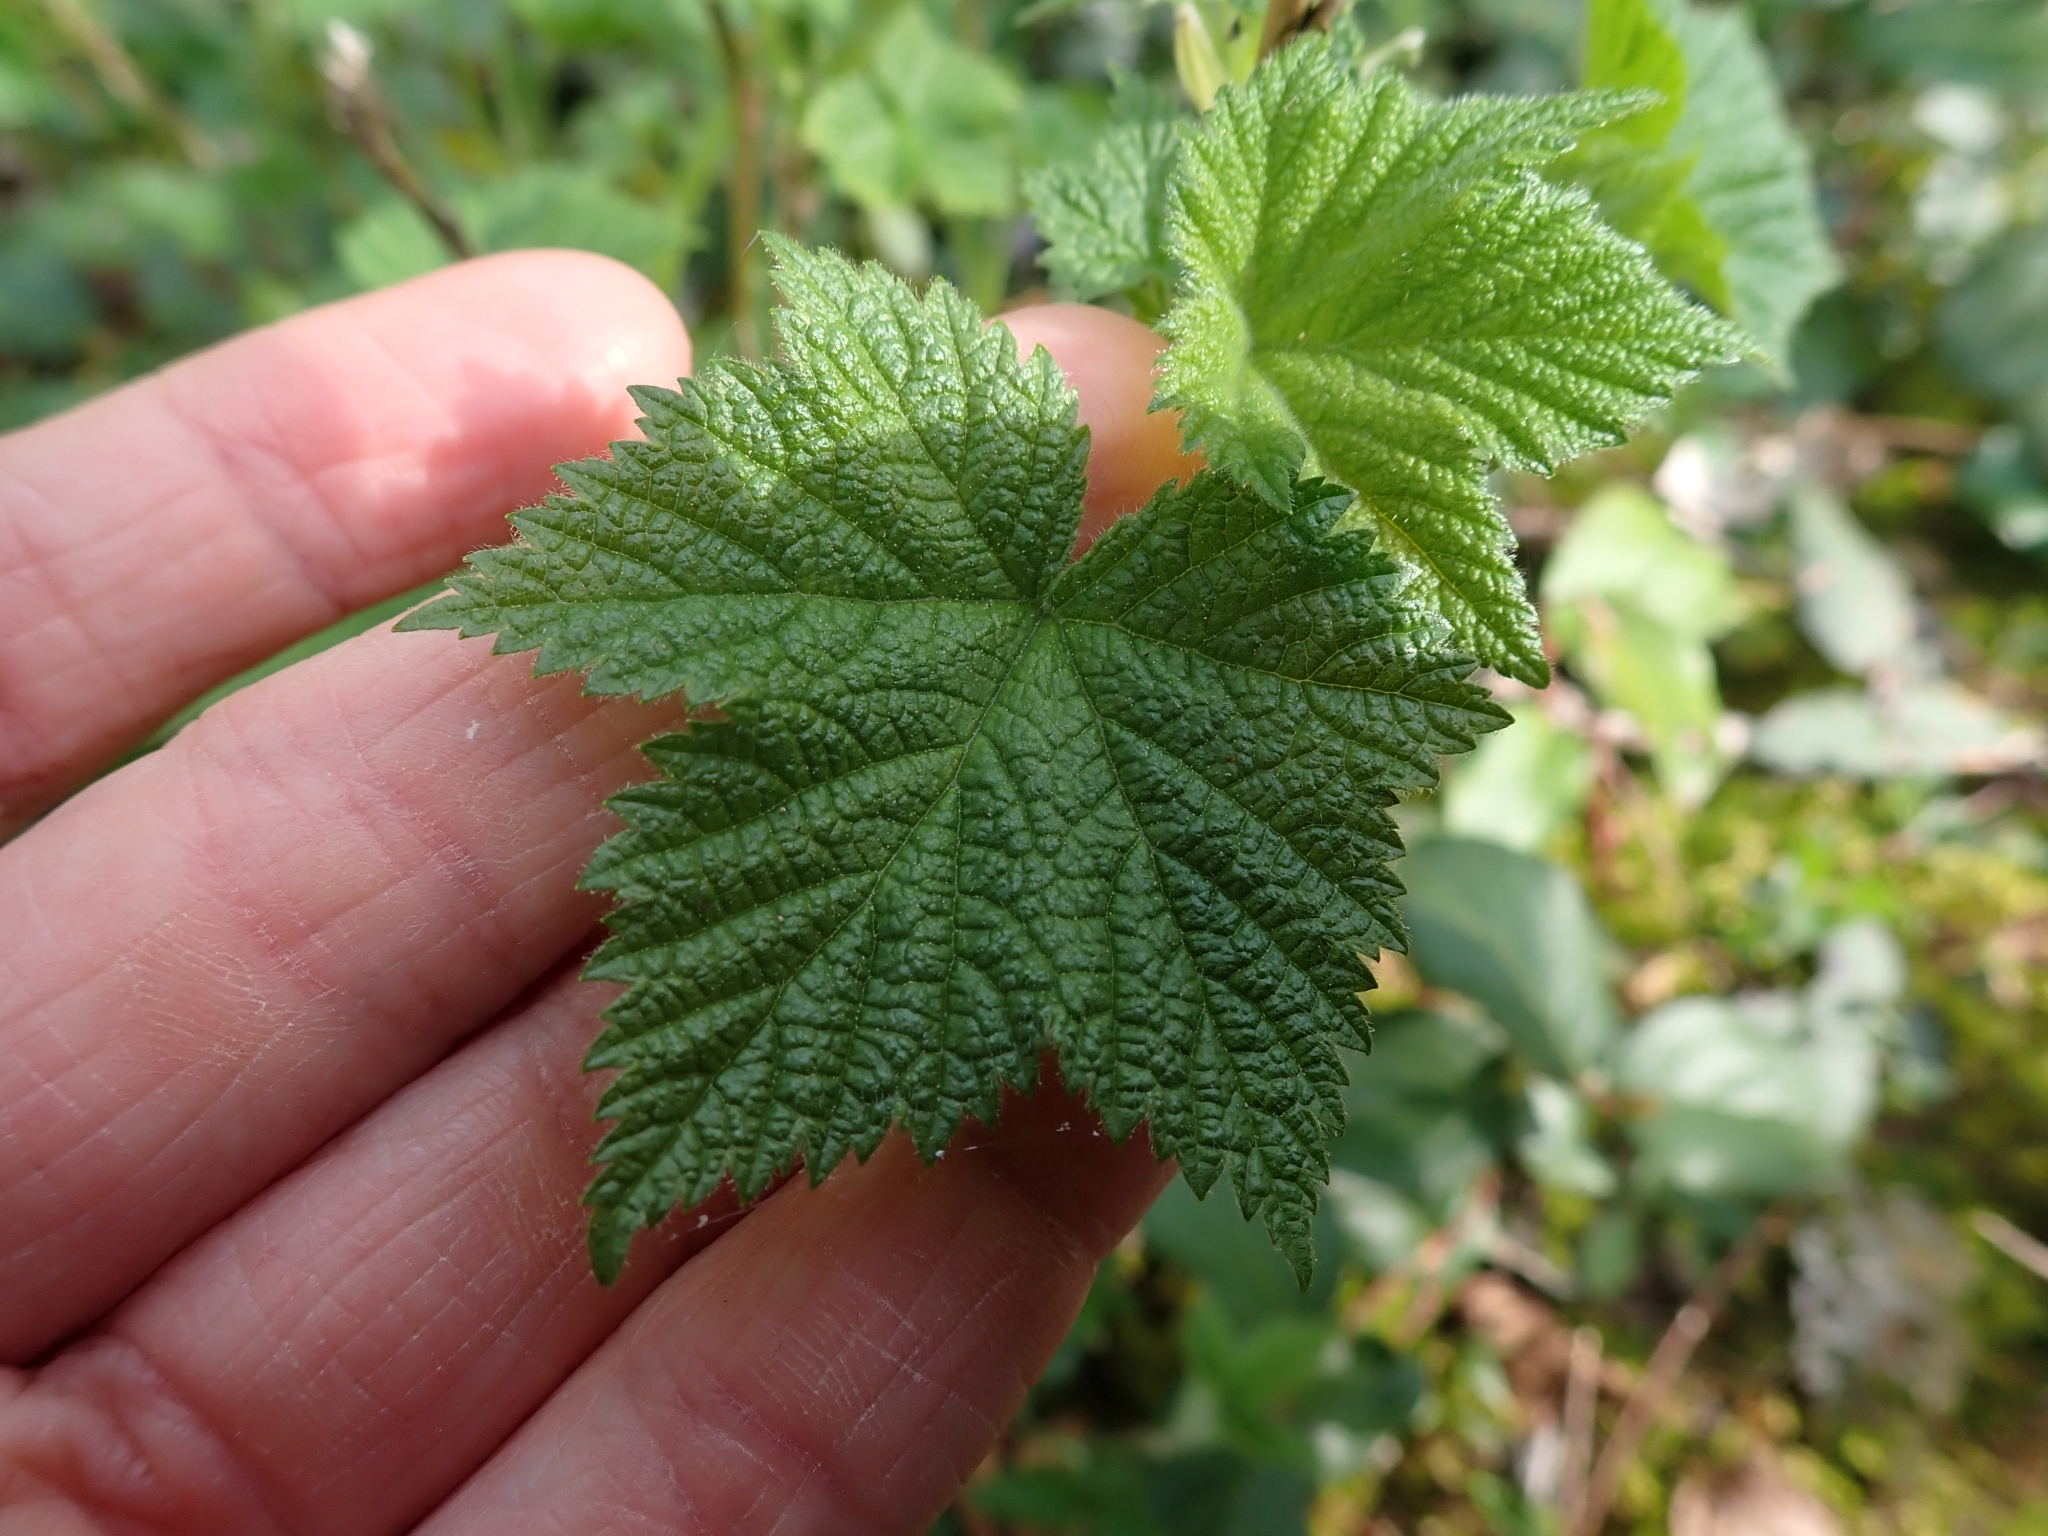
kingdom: Plantae
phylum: Tracheophyta
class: Magnoliopsida
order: Rosales
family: Rosaceae
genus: Rubus
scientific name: Rubus parviflorus
